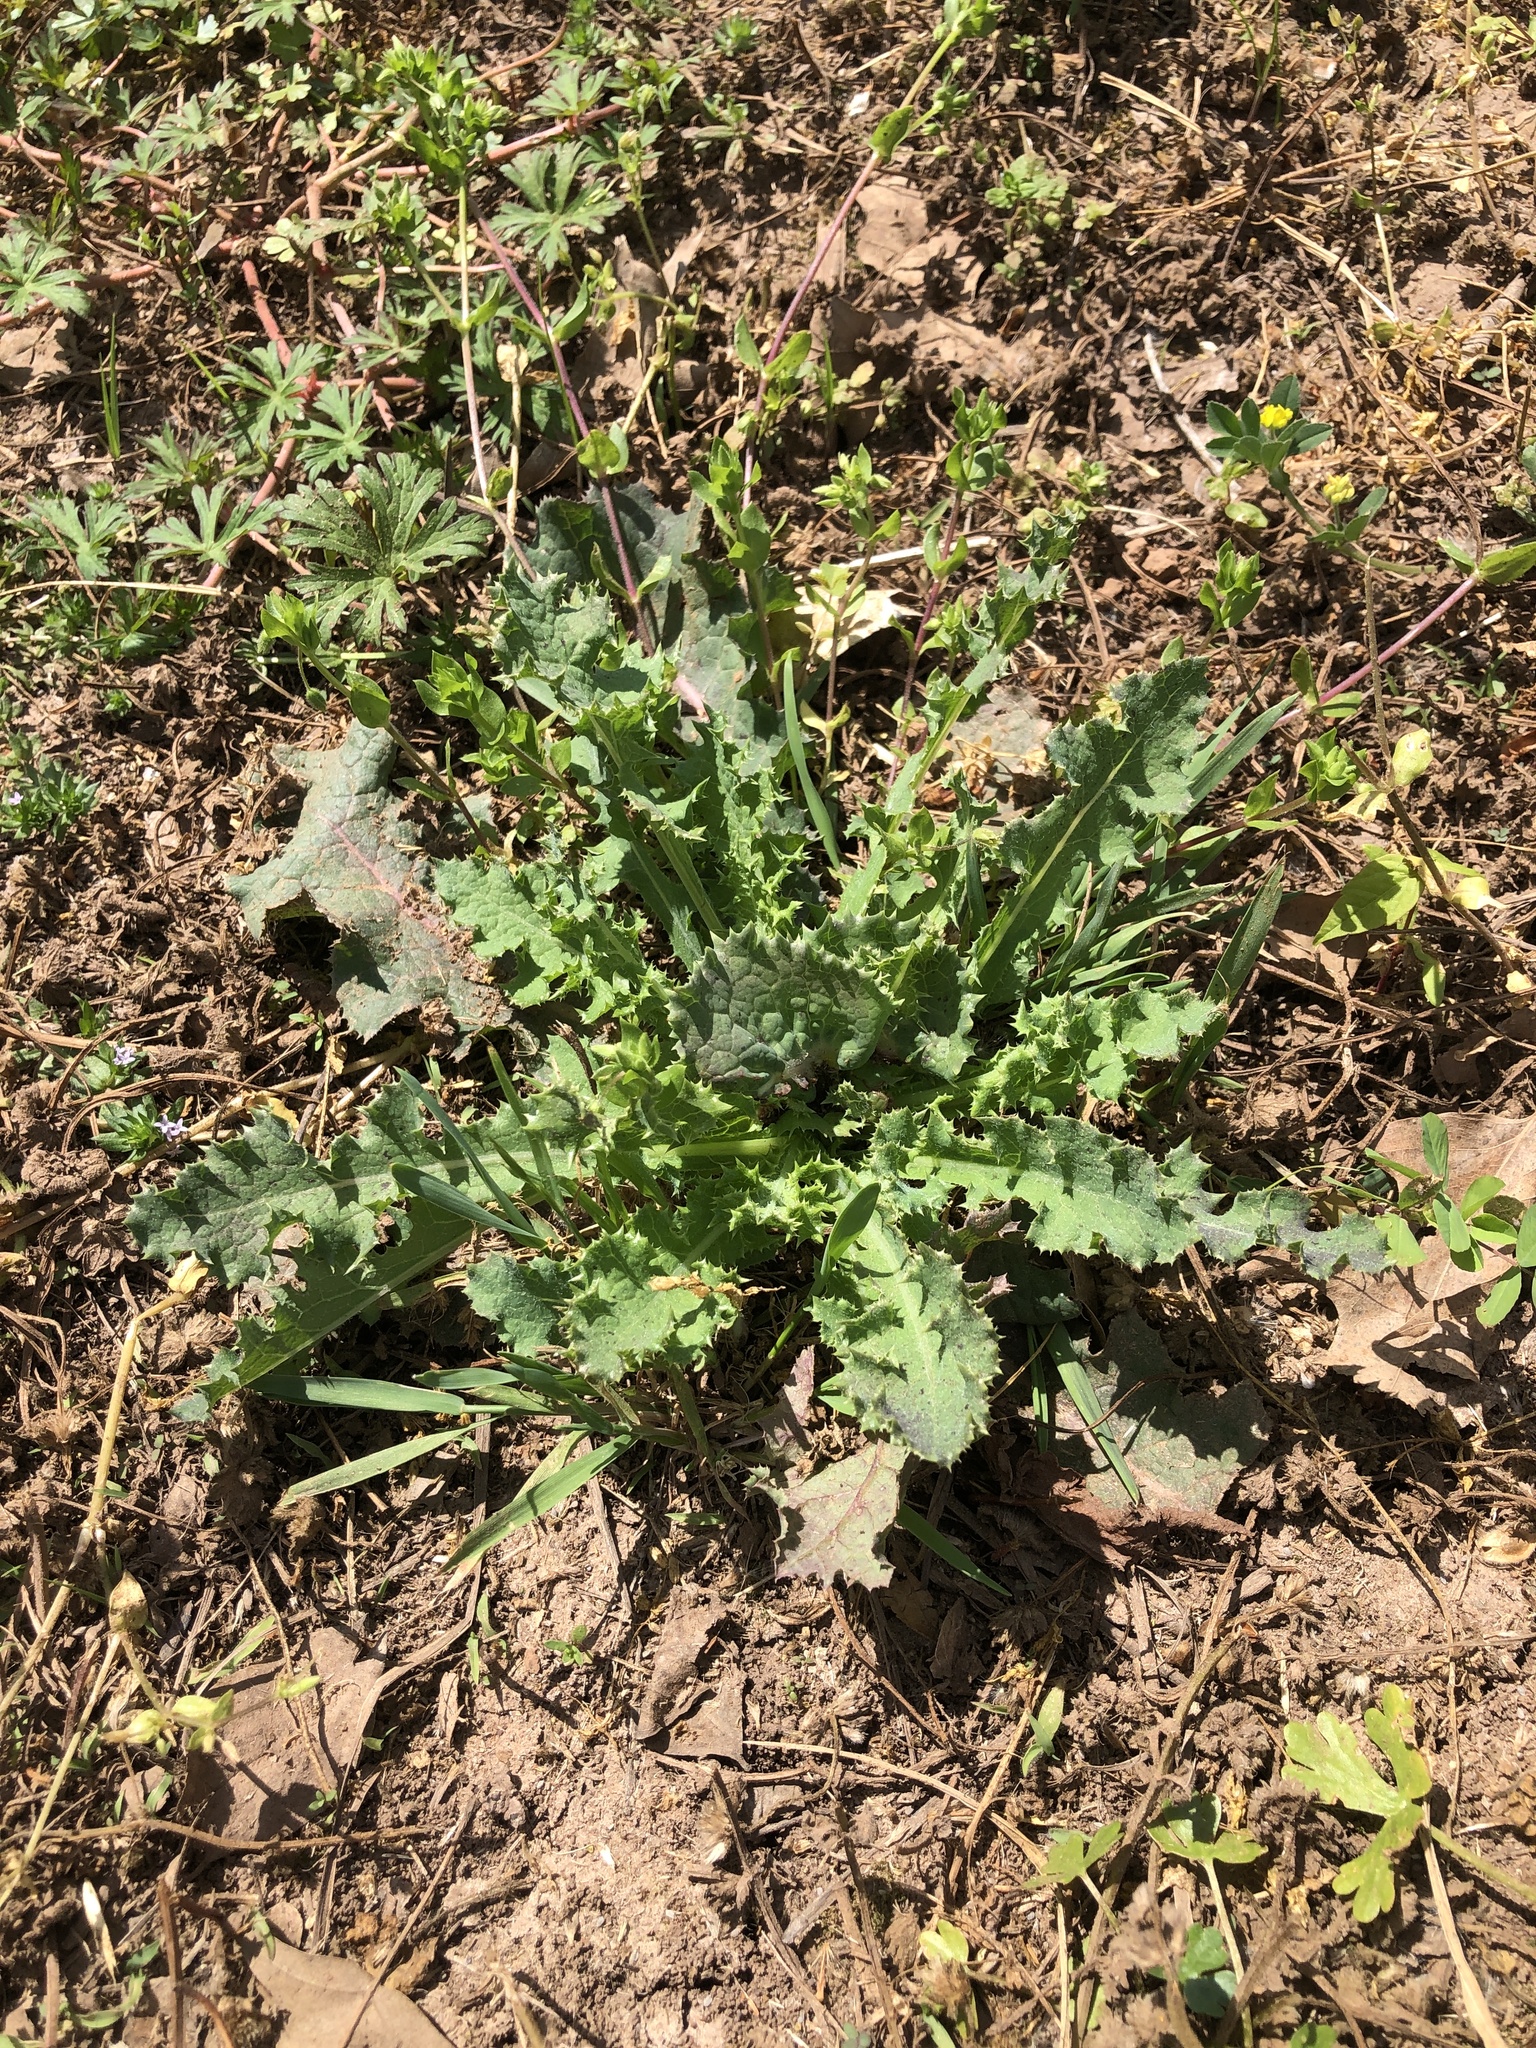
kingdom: Plantae
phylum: Tracheophyta
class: Magnoliopsida
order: Asterales
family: Asteraceae
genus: Sonchus
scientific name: Sonchus asper
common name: Prickly sow-thistle
